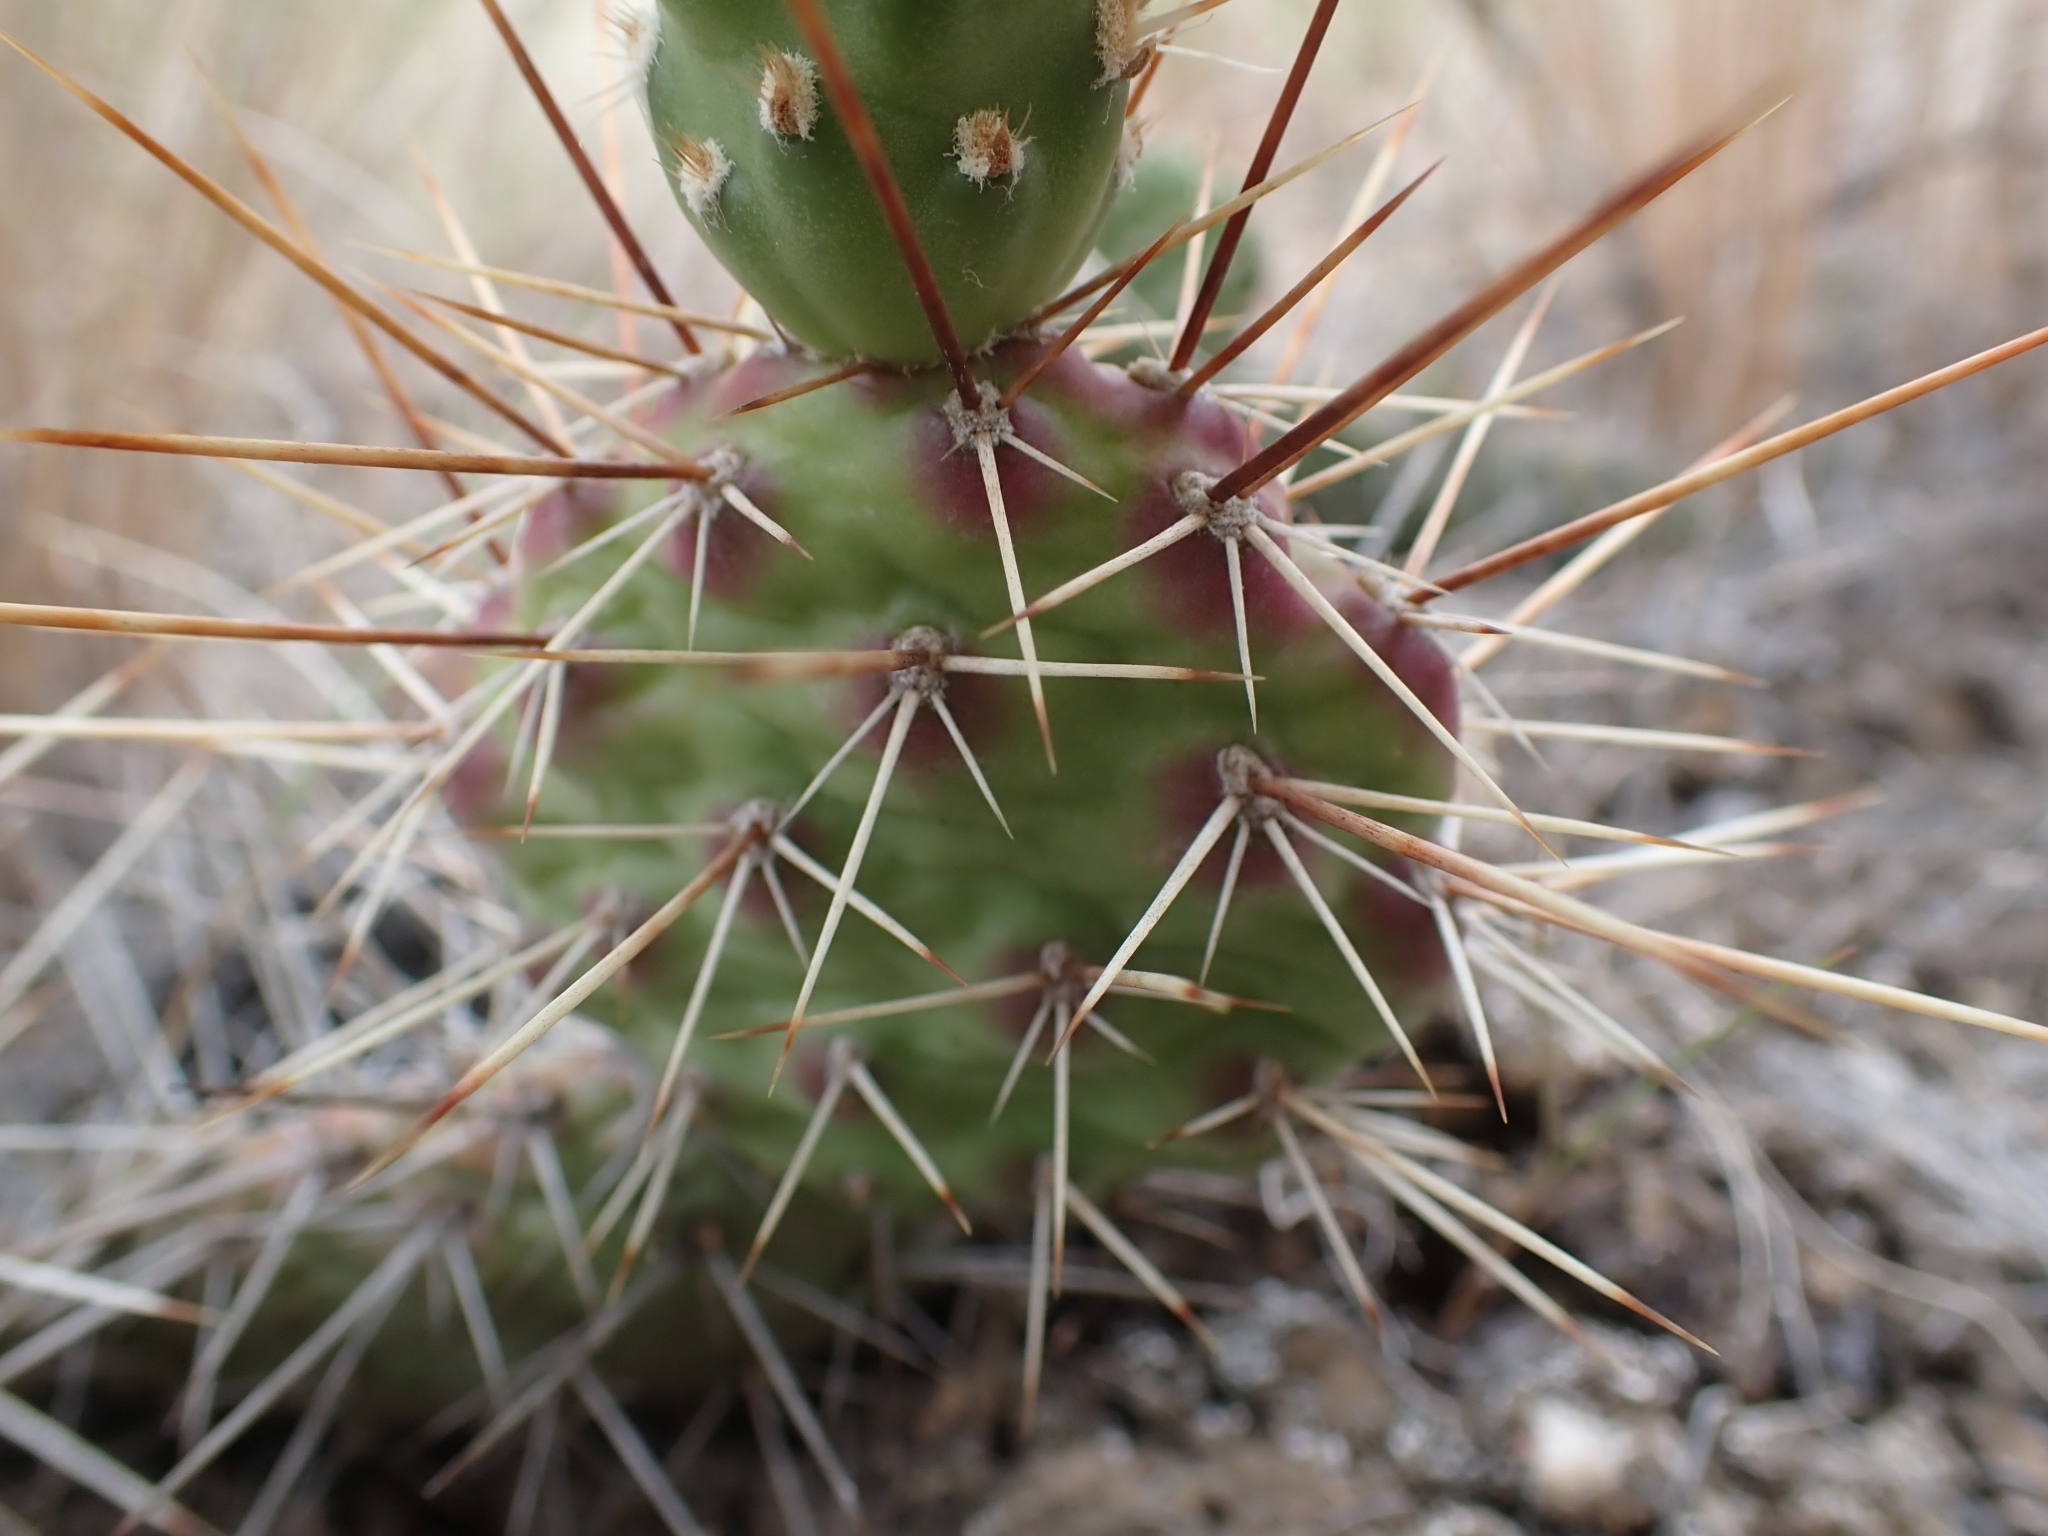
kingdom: Plantae
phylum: Tracheophyta
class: Magnoliopsida
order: Caryophyllales
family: Cactaceae
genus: Opuntia
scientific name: Opuntia columbiana
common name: Columbia prickly-pear
